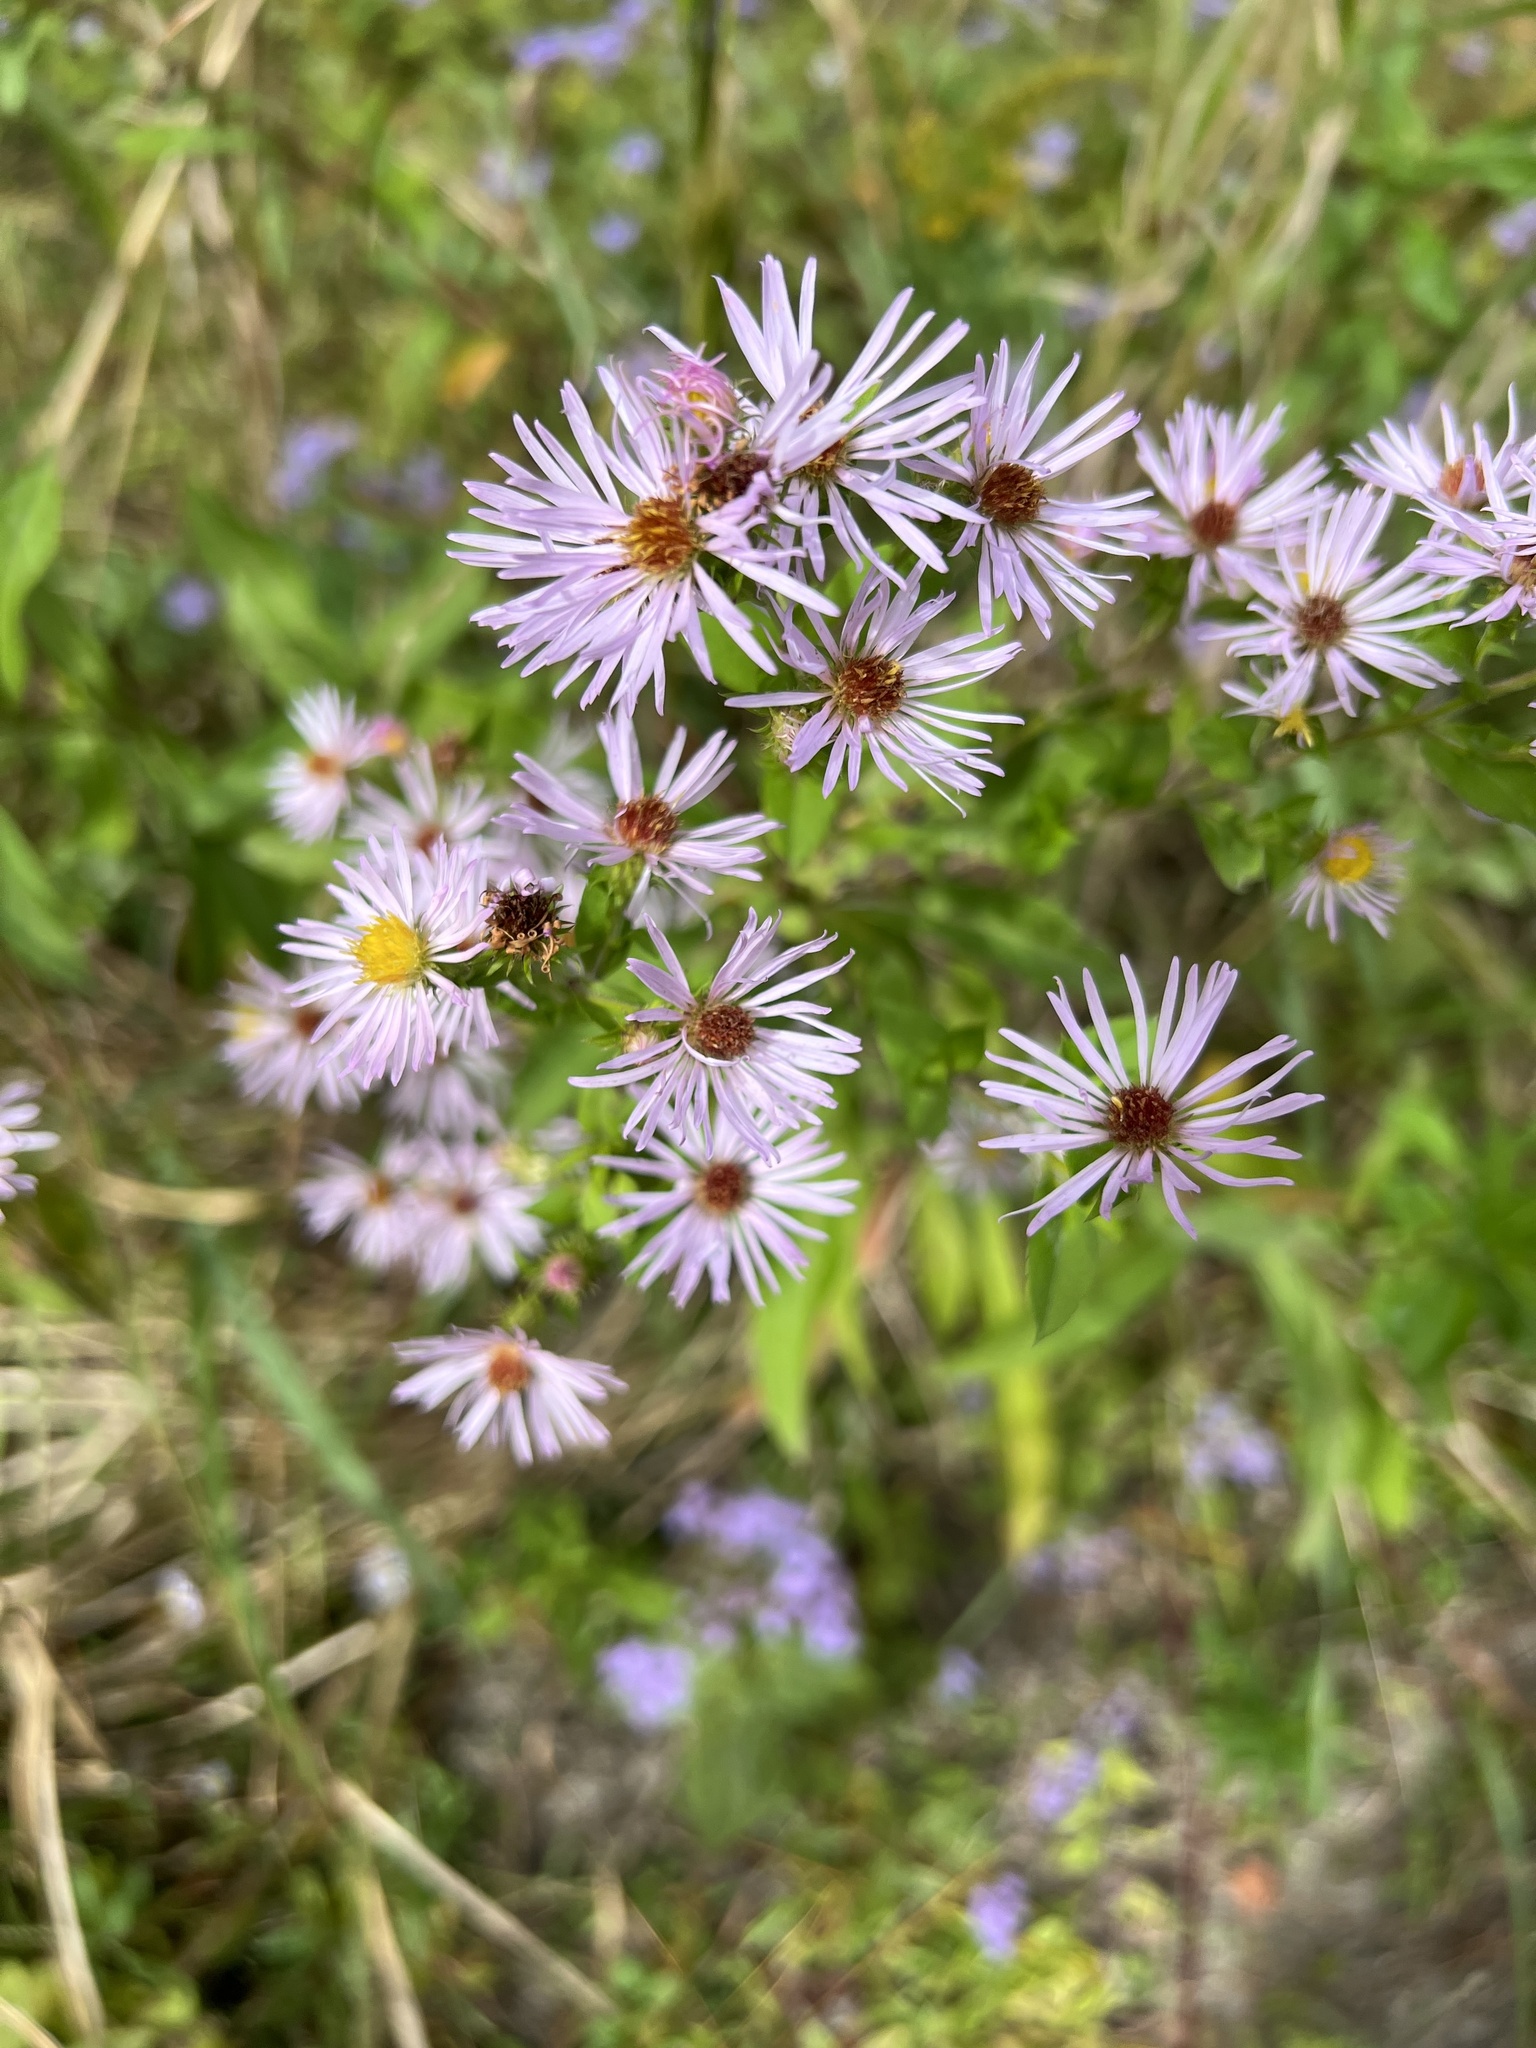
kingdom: Plantae
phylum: Tracheophyta
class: Magnoliopsida
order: Asterales
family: Asteraceae
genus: Symphyotrichum
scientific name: Symphyotrichum elliottii
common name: Southern swamp aster
